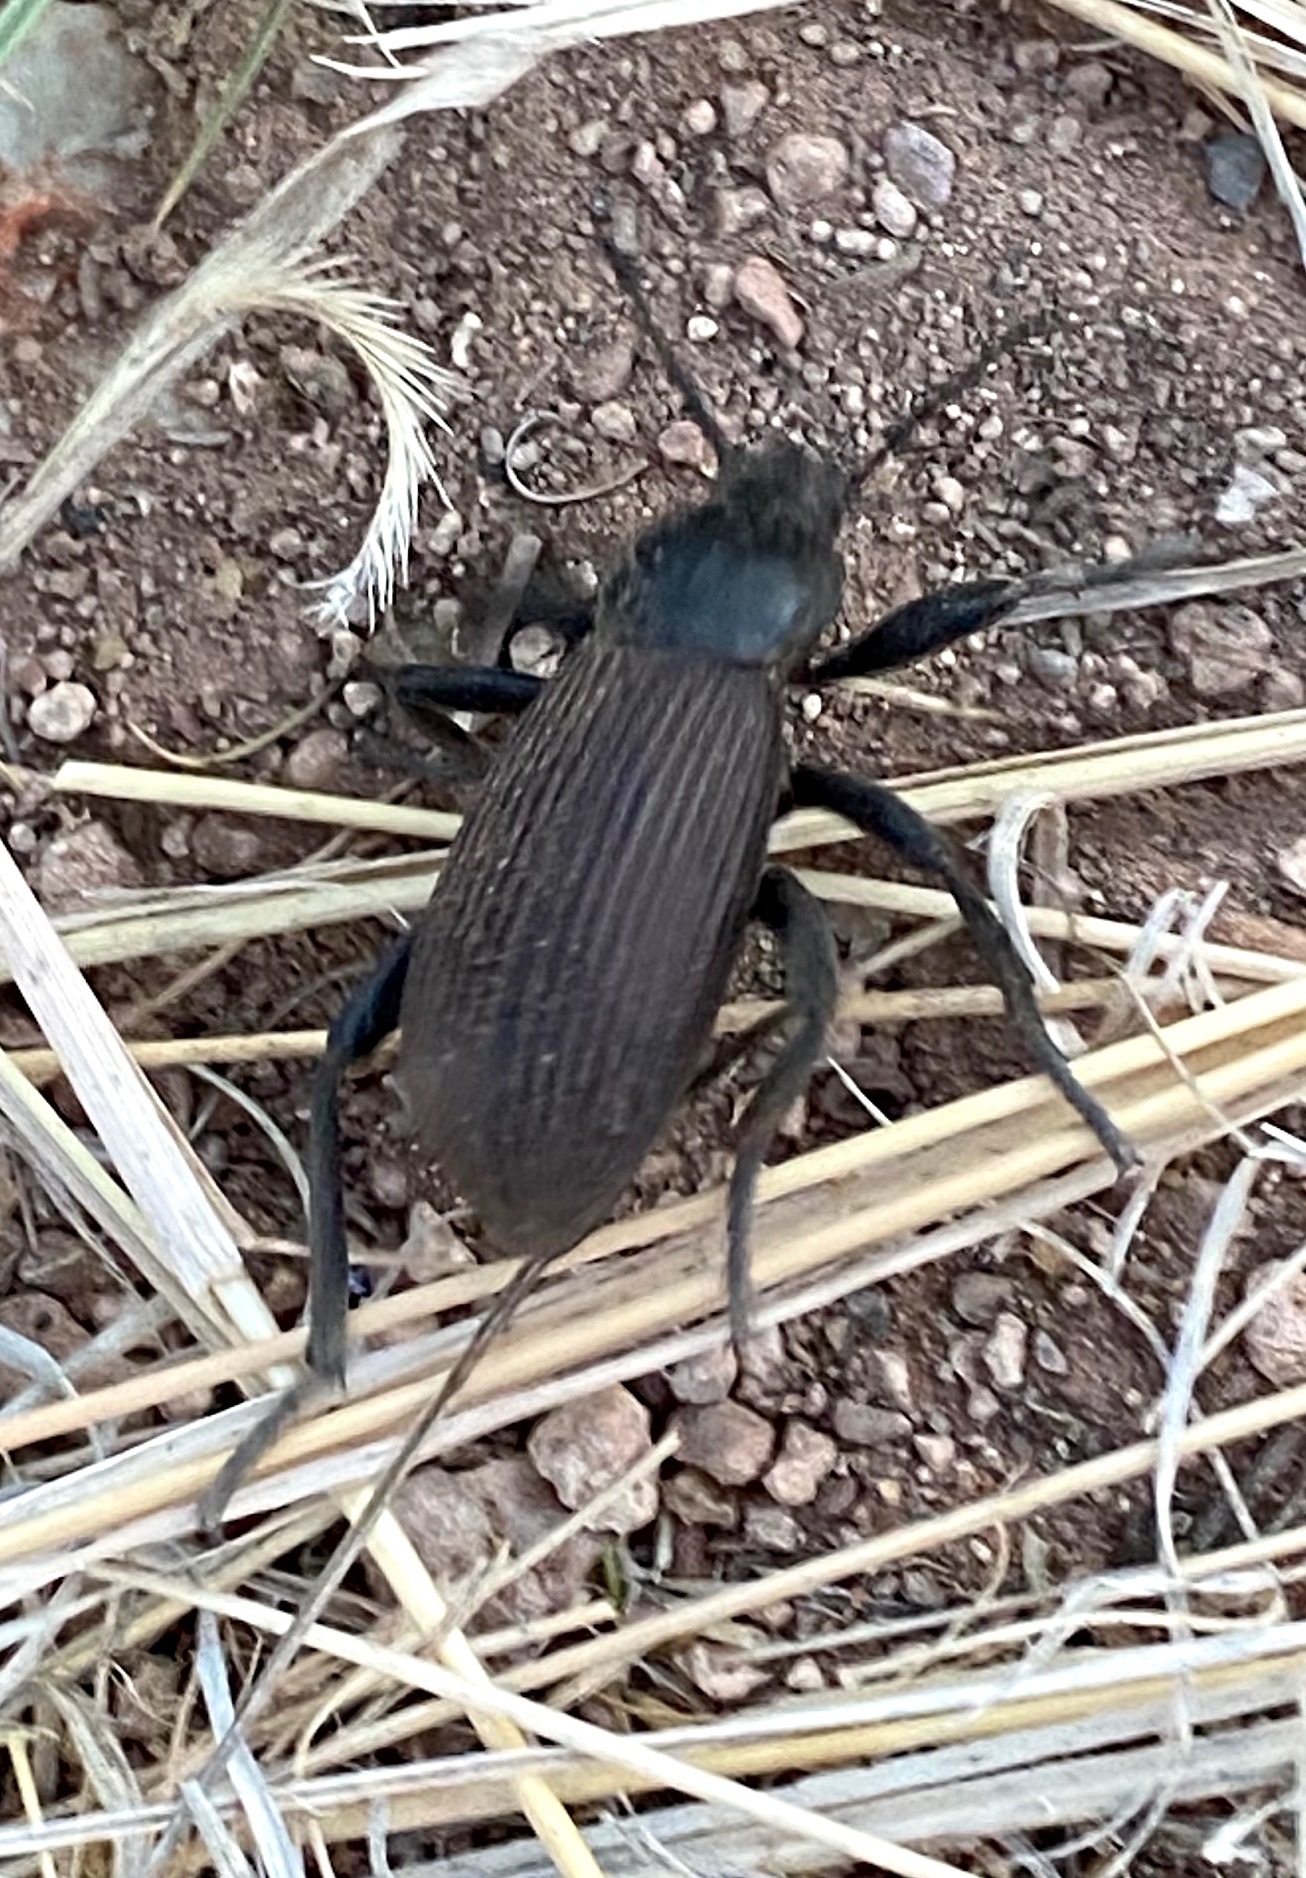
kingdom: Animalia
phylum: Arthropoda
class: Insecta
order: Coleoptera
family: Tenebrionidae
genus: Eleodes
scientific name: Eleodes obscura
